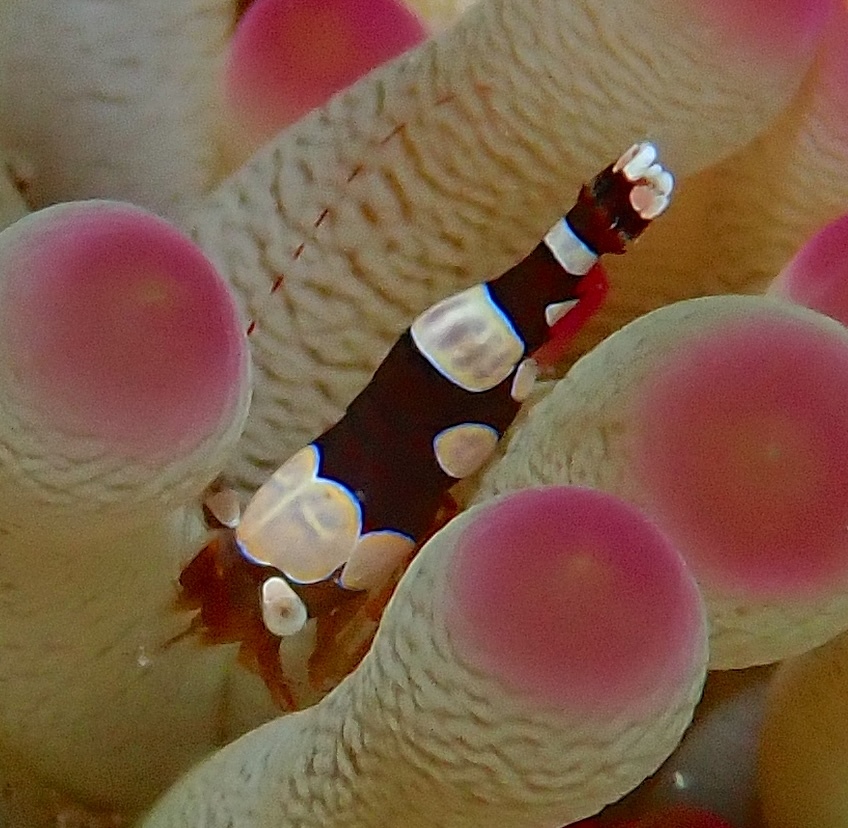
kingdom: Animalia
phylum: Arthropoda
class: Malacostraca
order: Decapoda
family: Thoridae
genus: Thor
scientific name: Thor dicaprio
